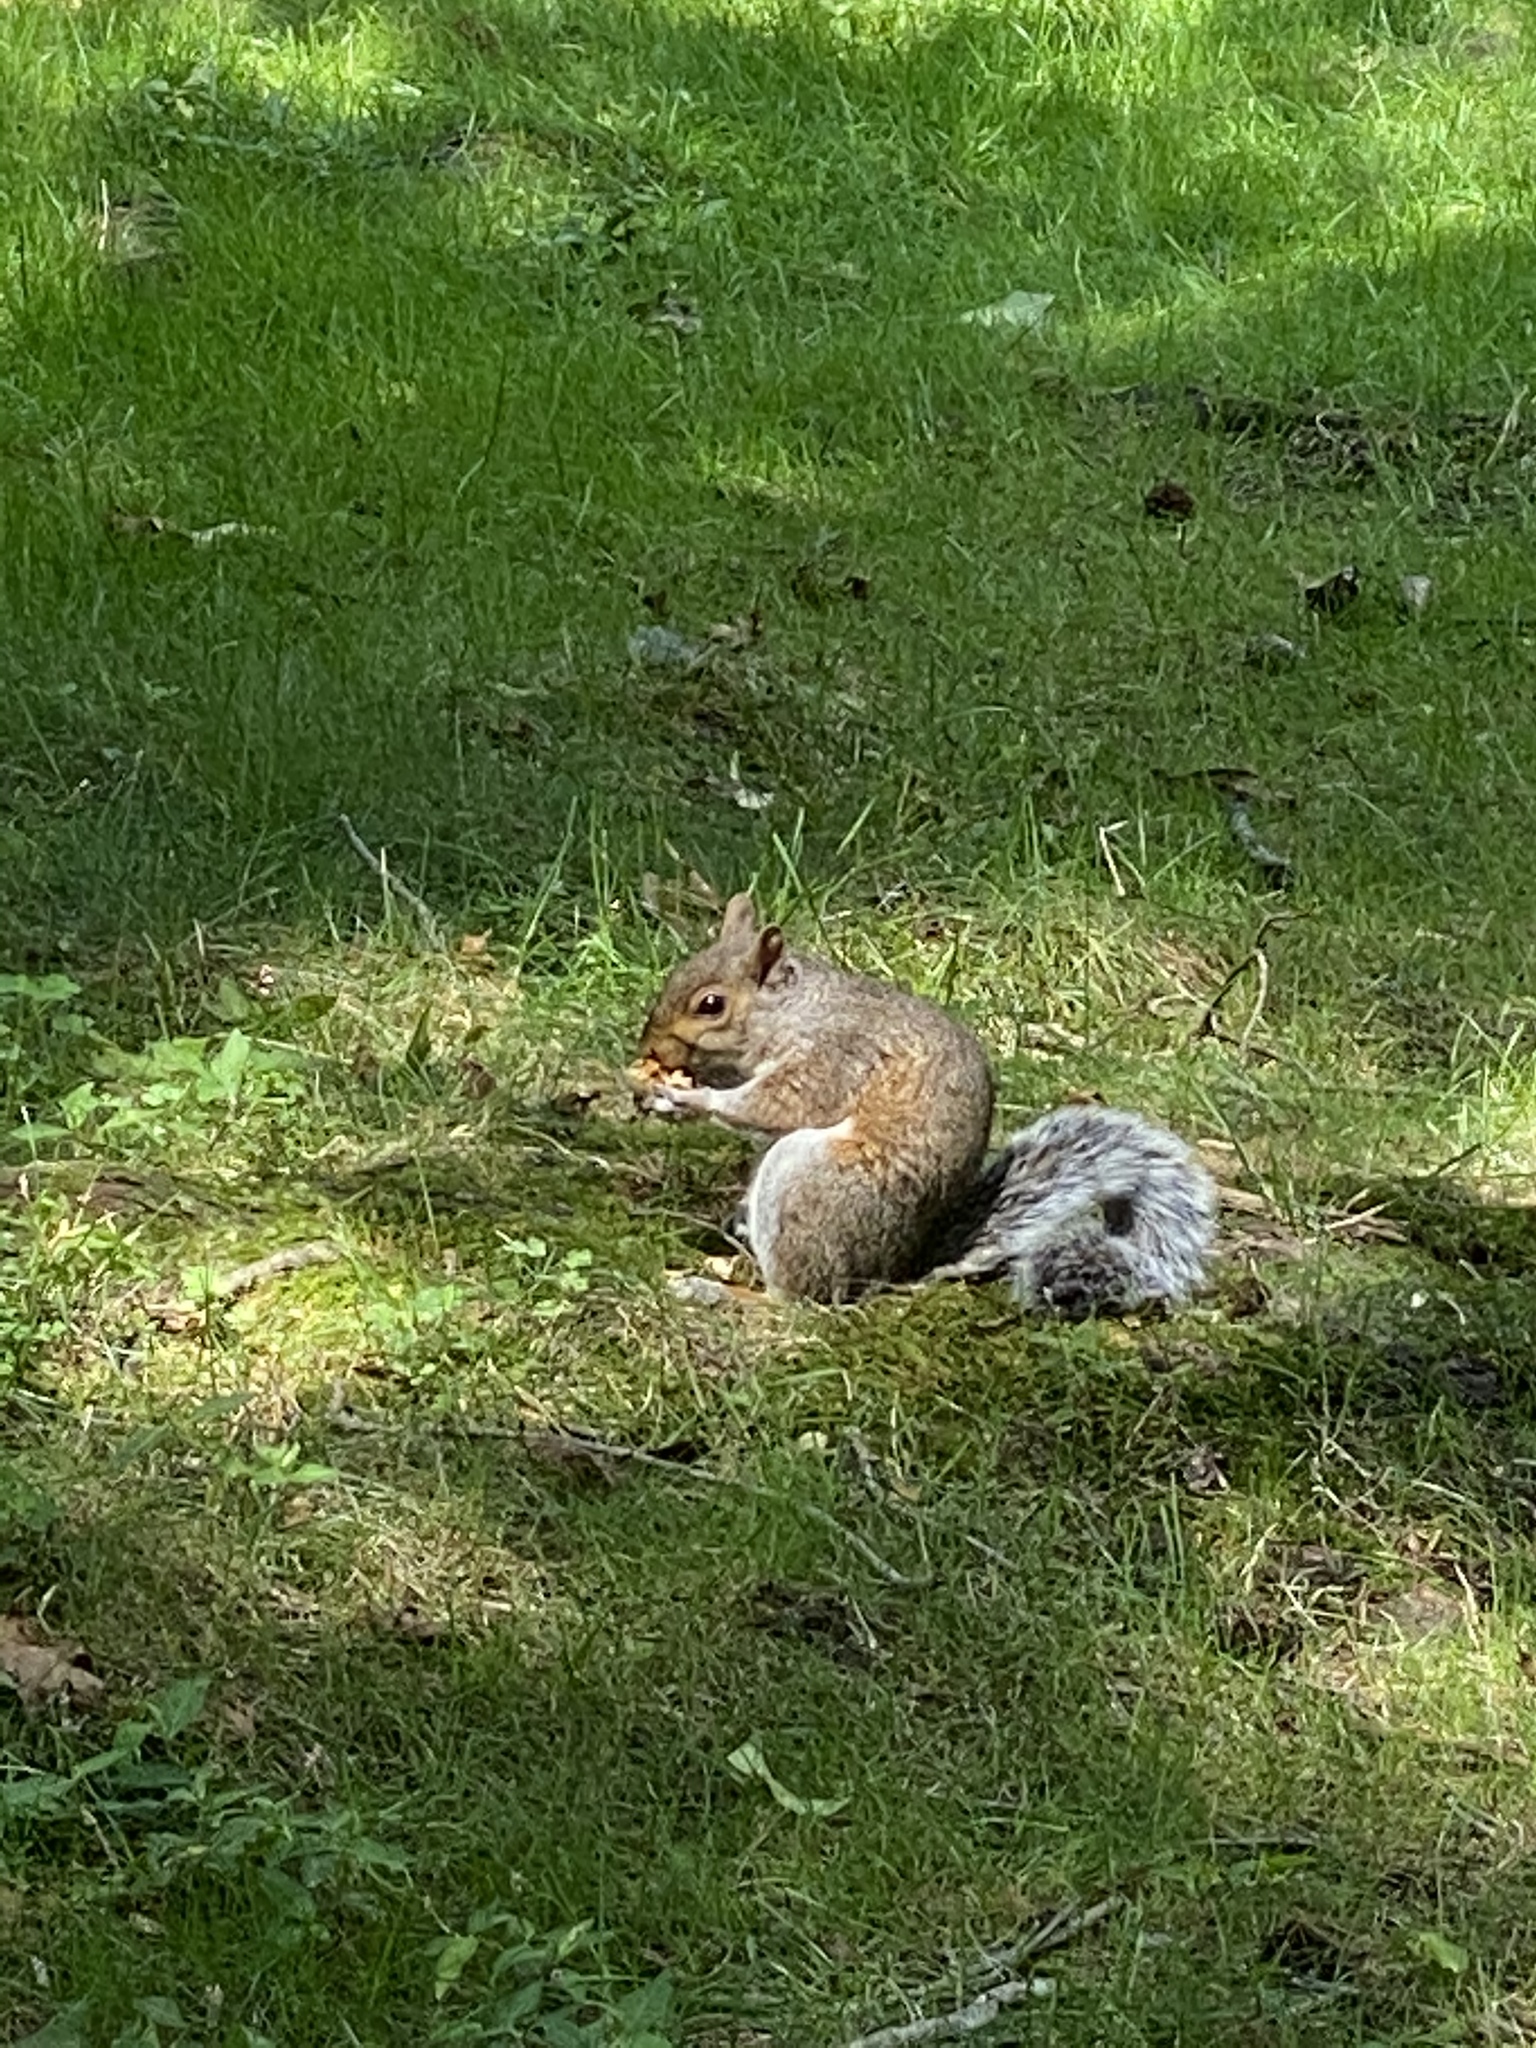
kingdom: Animalia
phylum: Chordata
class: Mammalia
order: Rodentia
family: Sciuridae
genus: Sciurus
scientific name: Sciurus carolinensis
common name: Eastern gray squirrel
